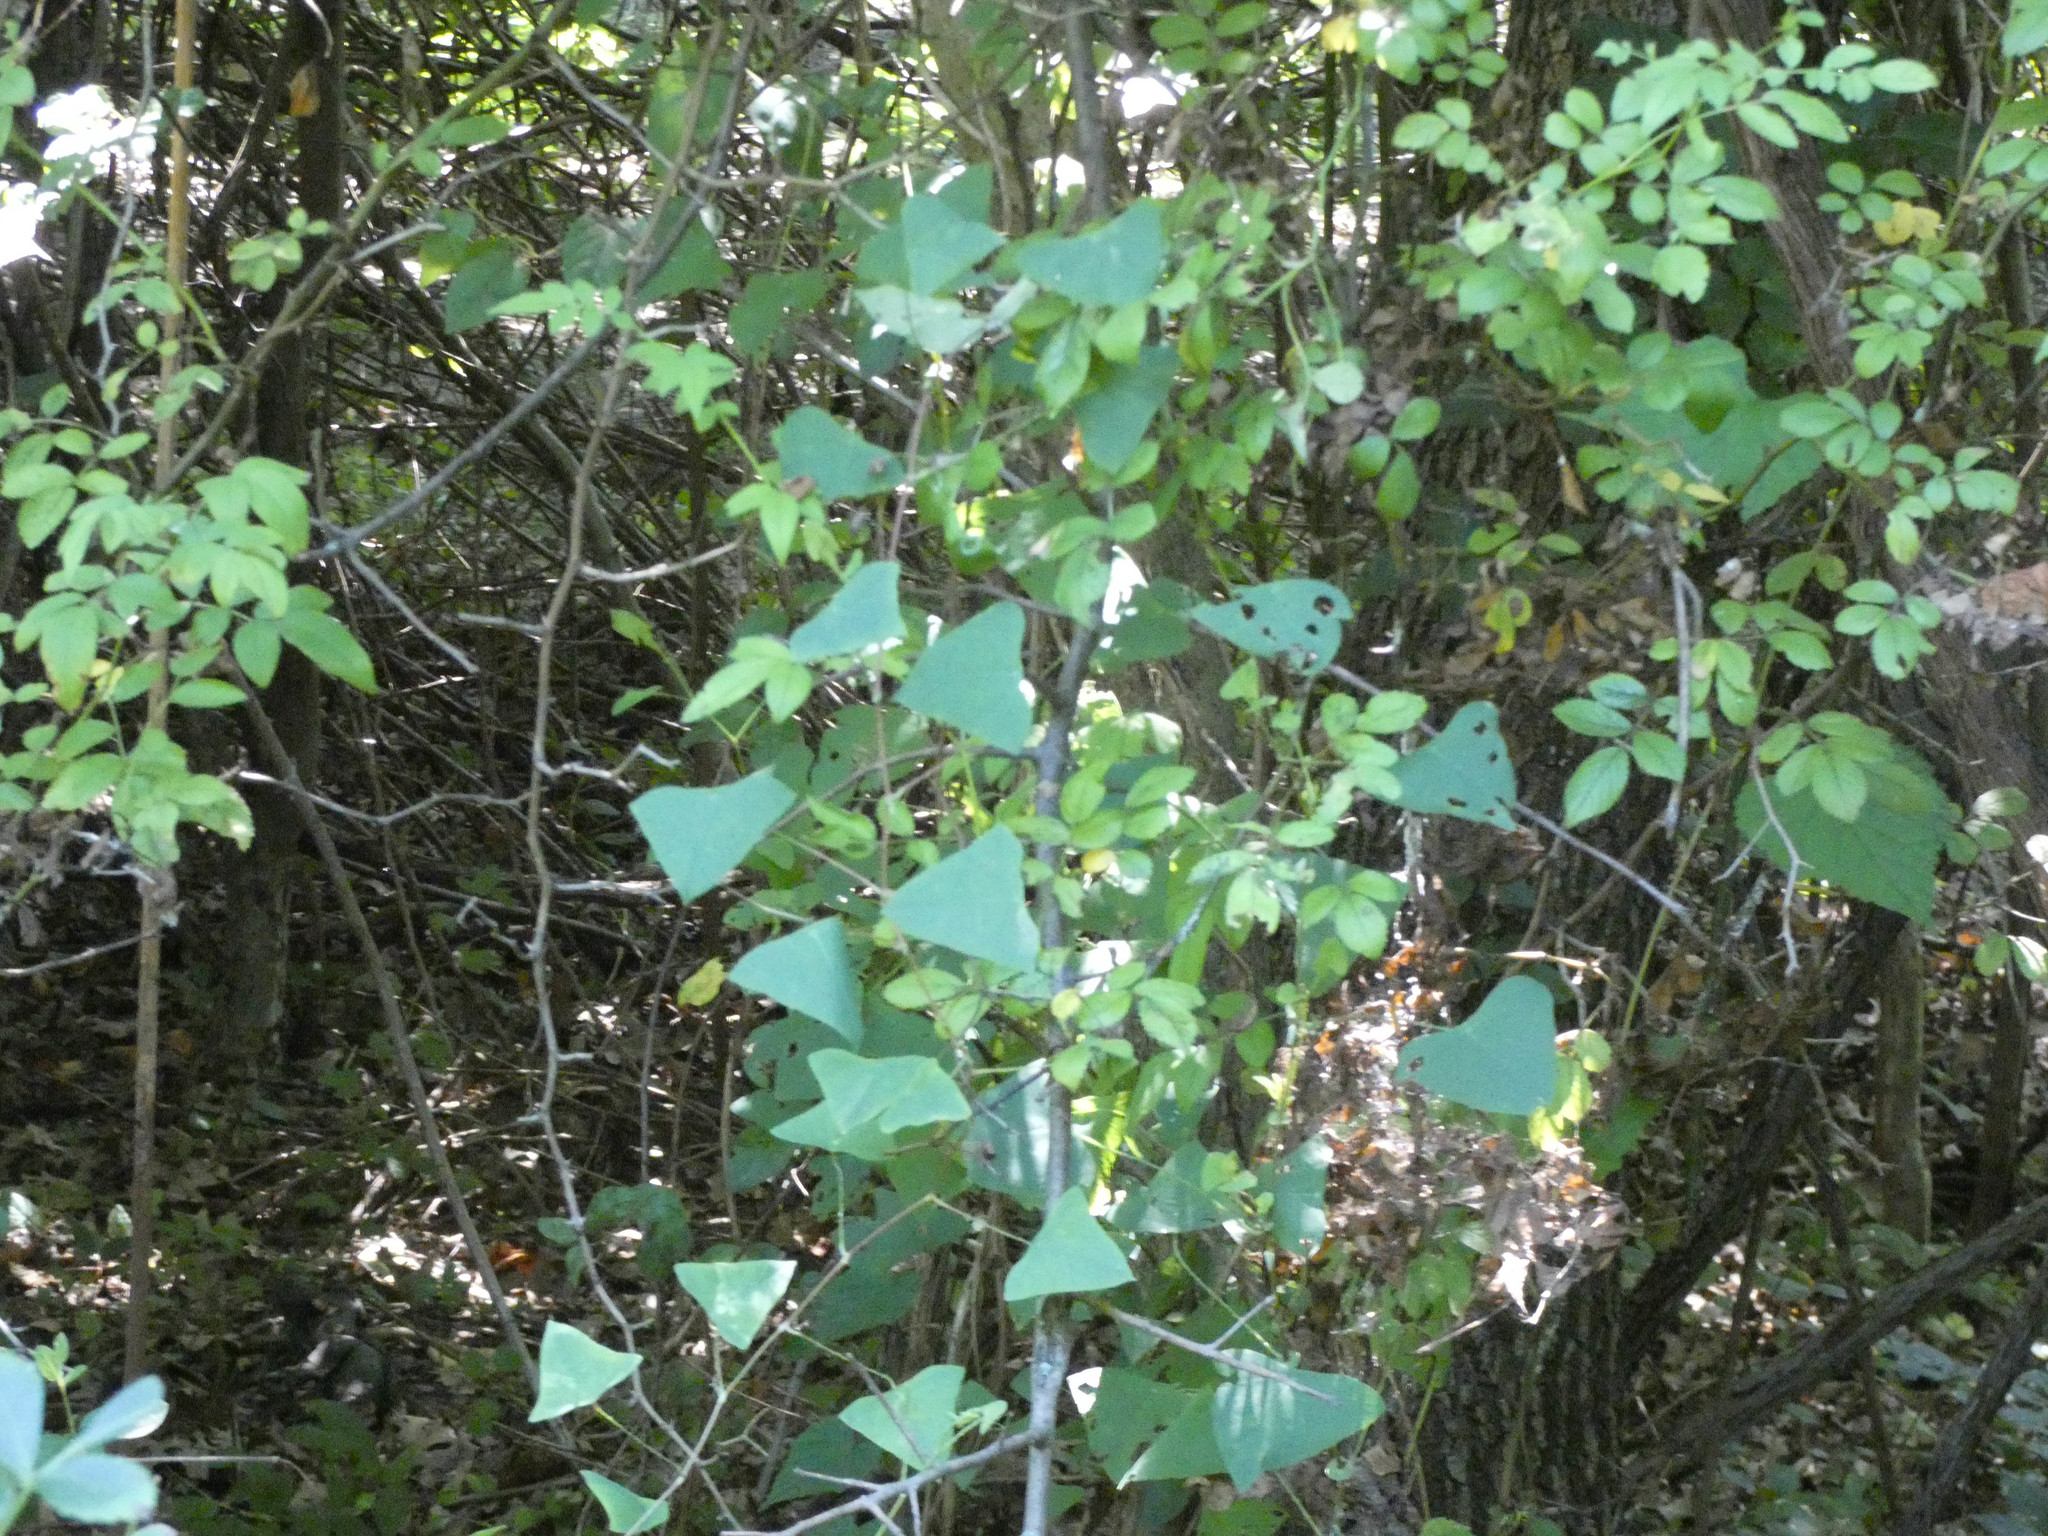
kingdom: Plantae
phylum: Tracheophyta
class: Magnoliopsida
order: Caryophyllales
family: Polygonaceae
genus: Persicaria
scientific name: Persicaria perfoliata
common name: Asiatic tearthumb
